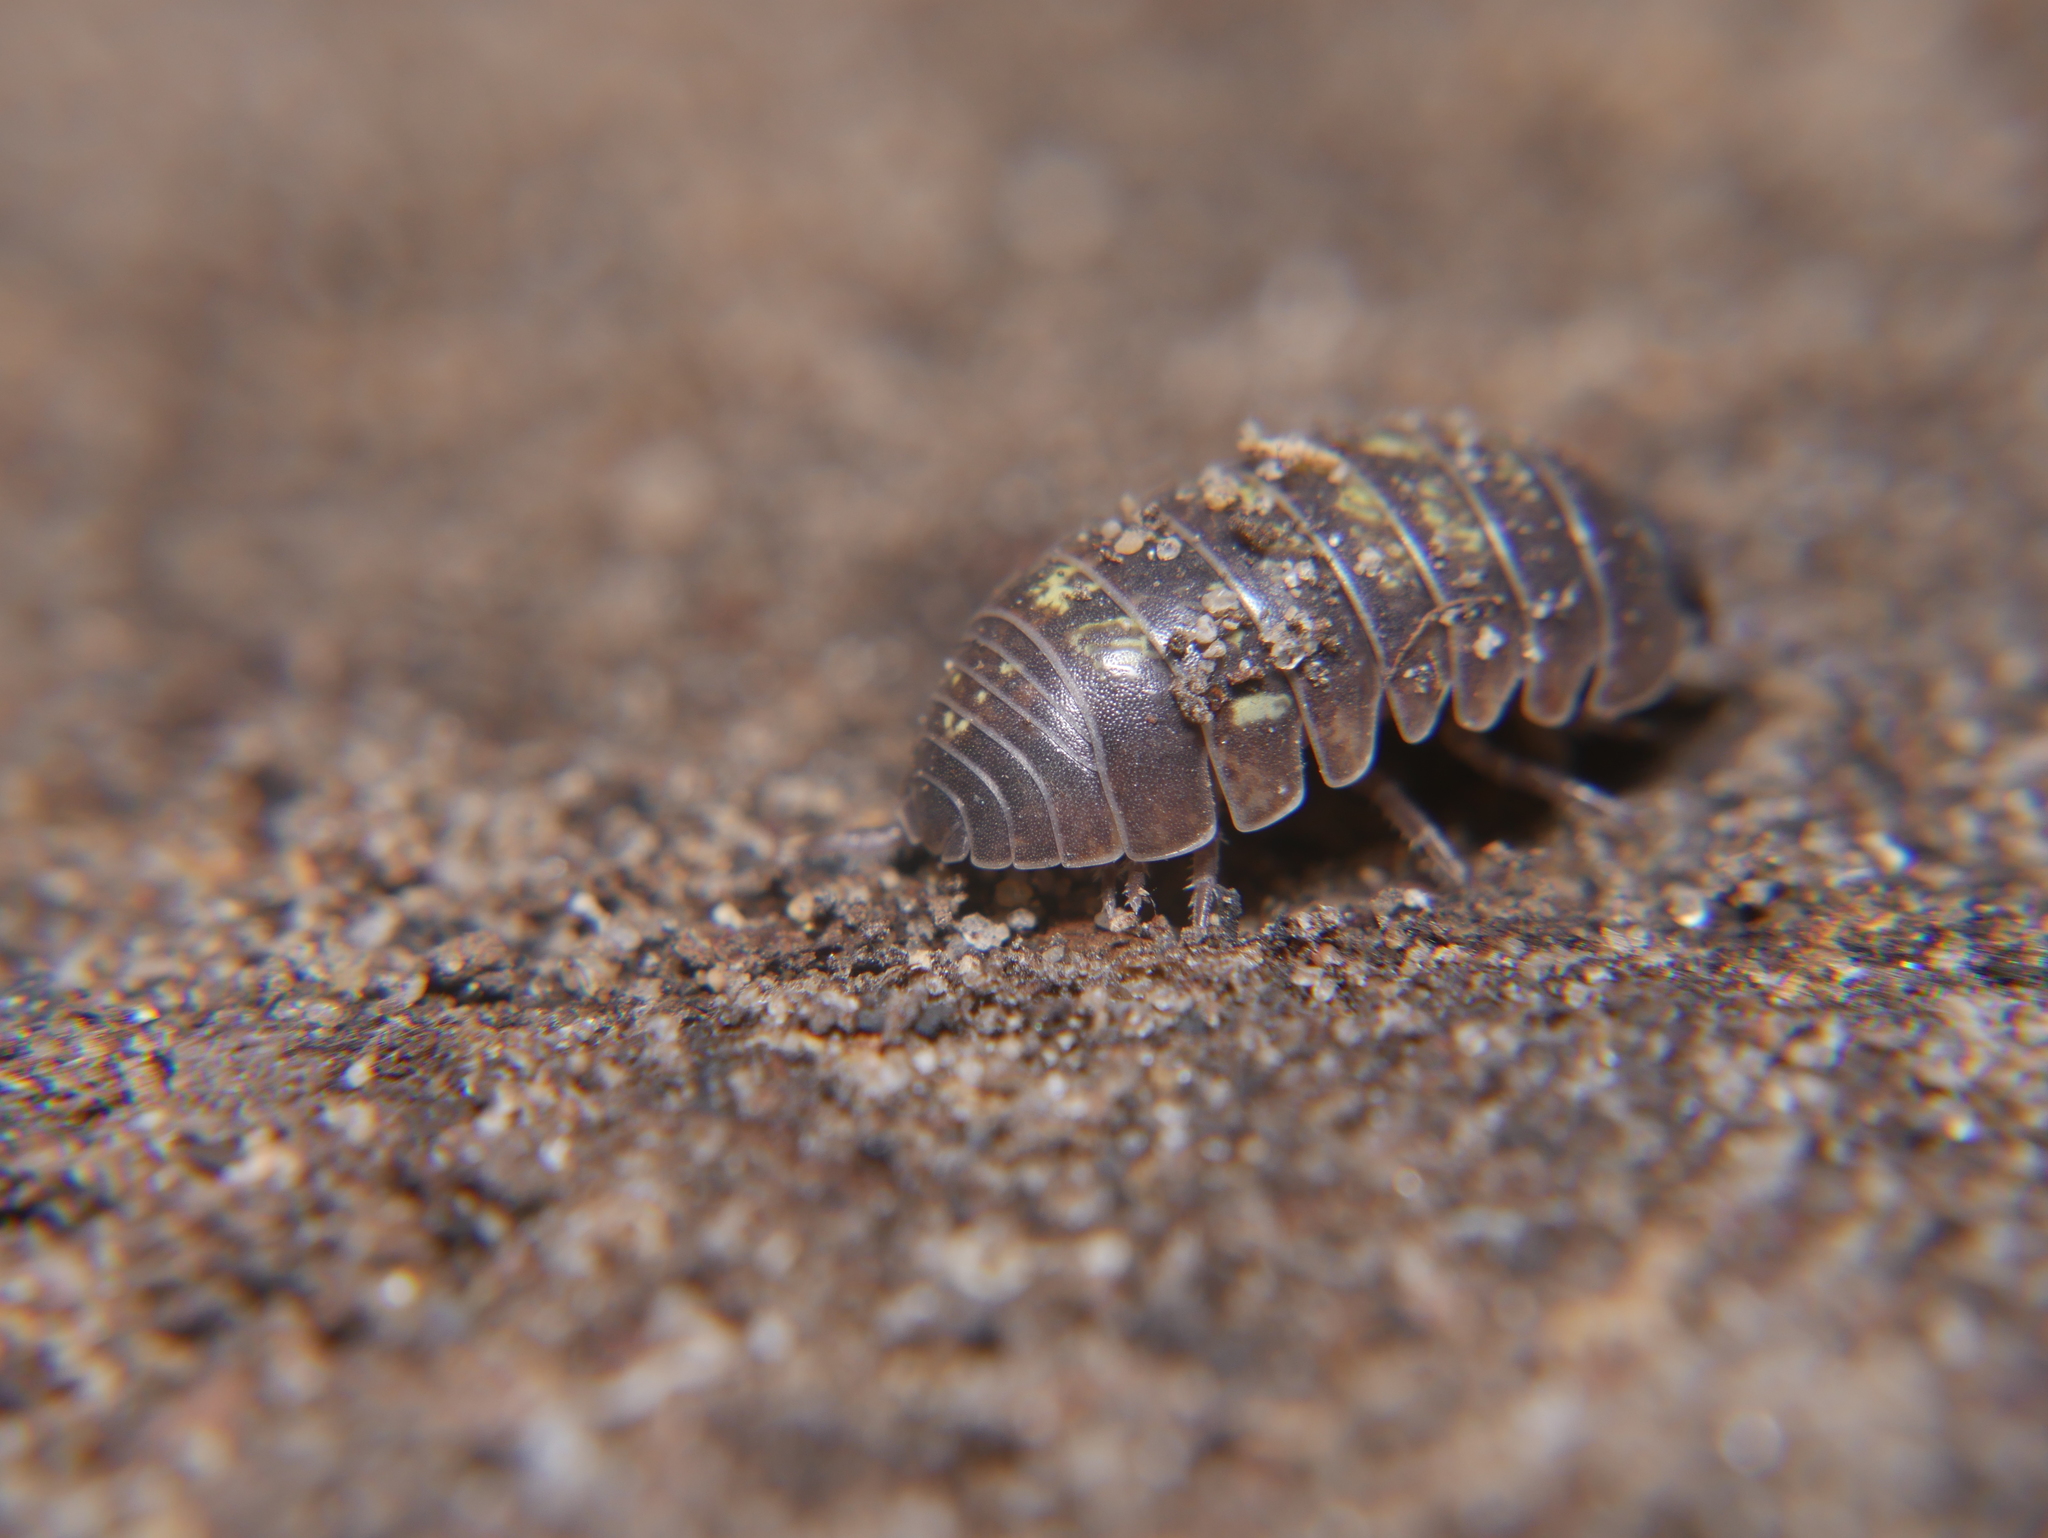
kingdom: Animalia
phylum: Arthropoda
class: Malacostraca
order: Isopoda
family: Armadillidiidae
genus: Armadillidium
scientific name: Armadillidium vulgare
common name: Common pill woodlouse
